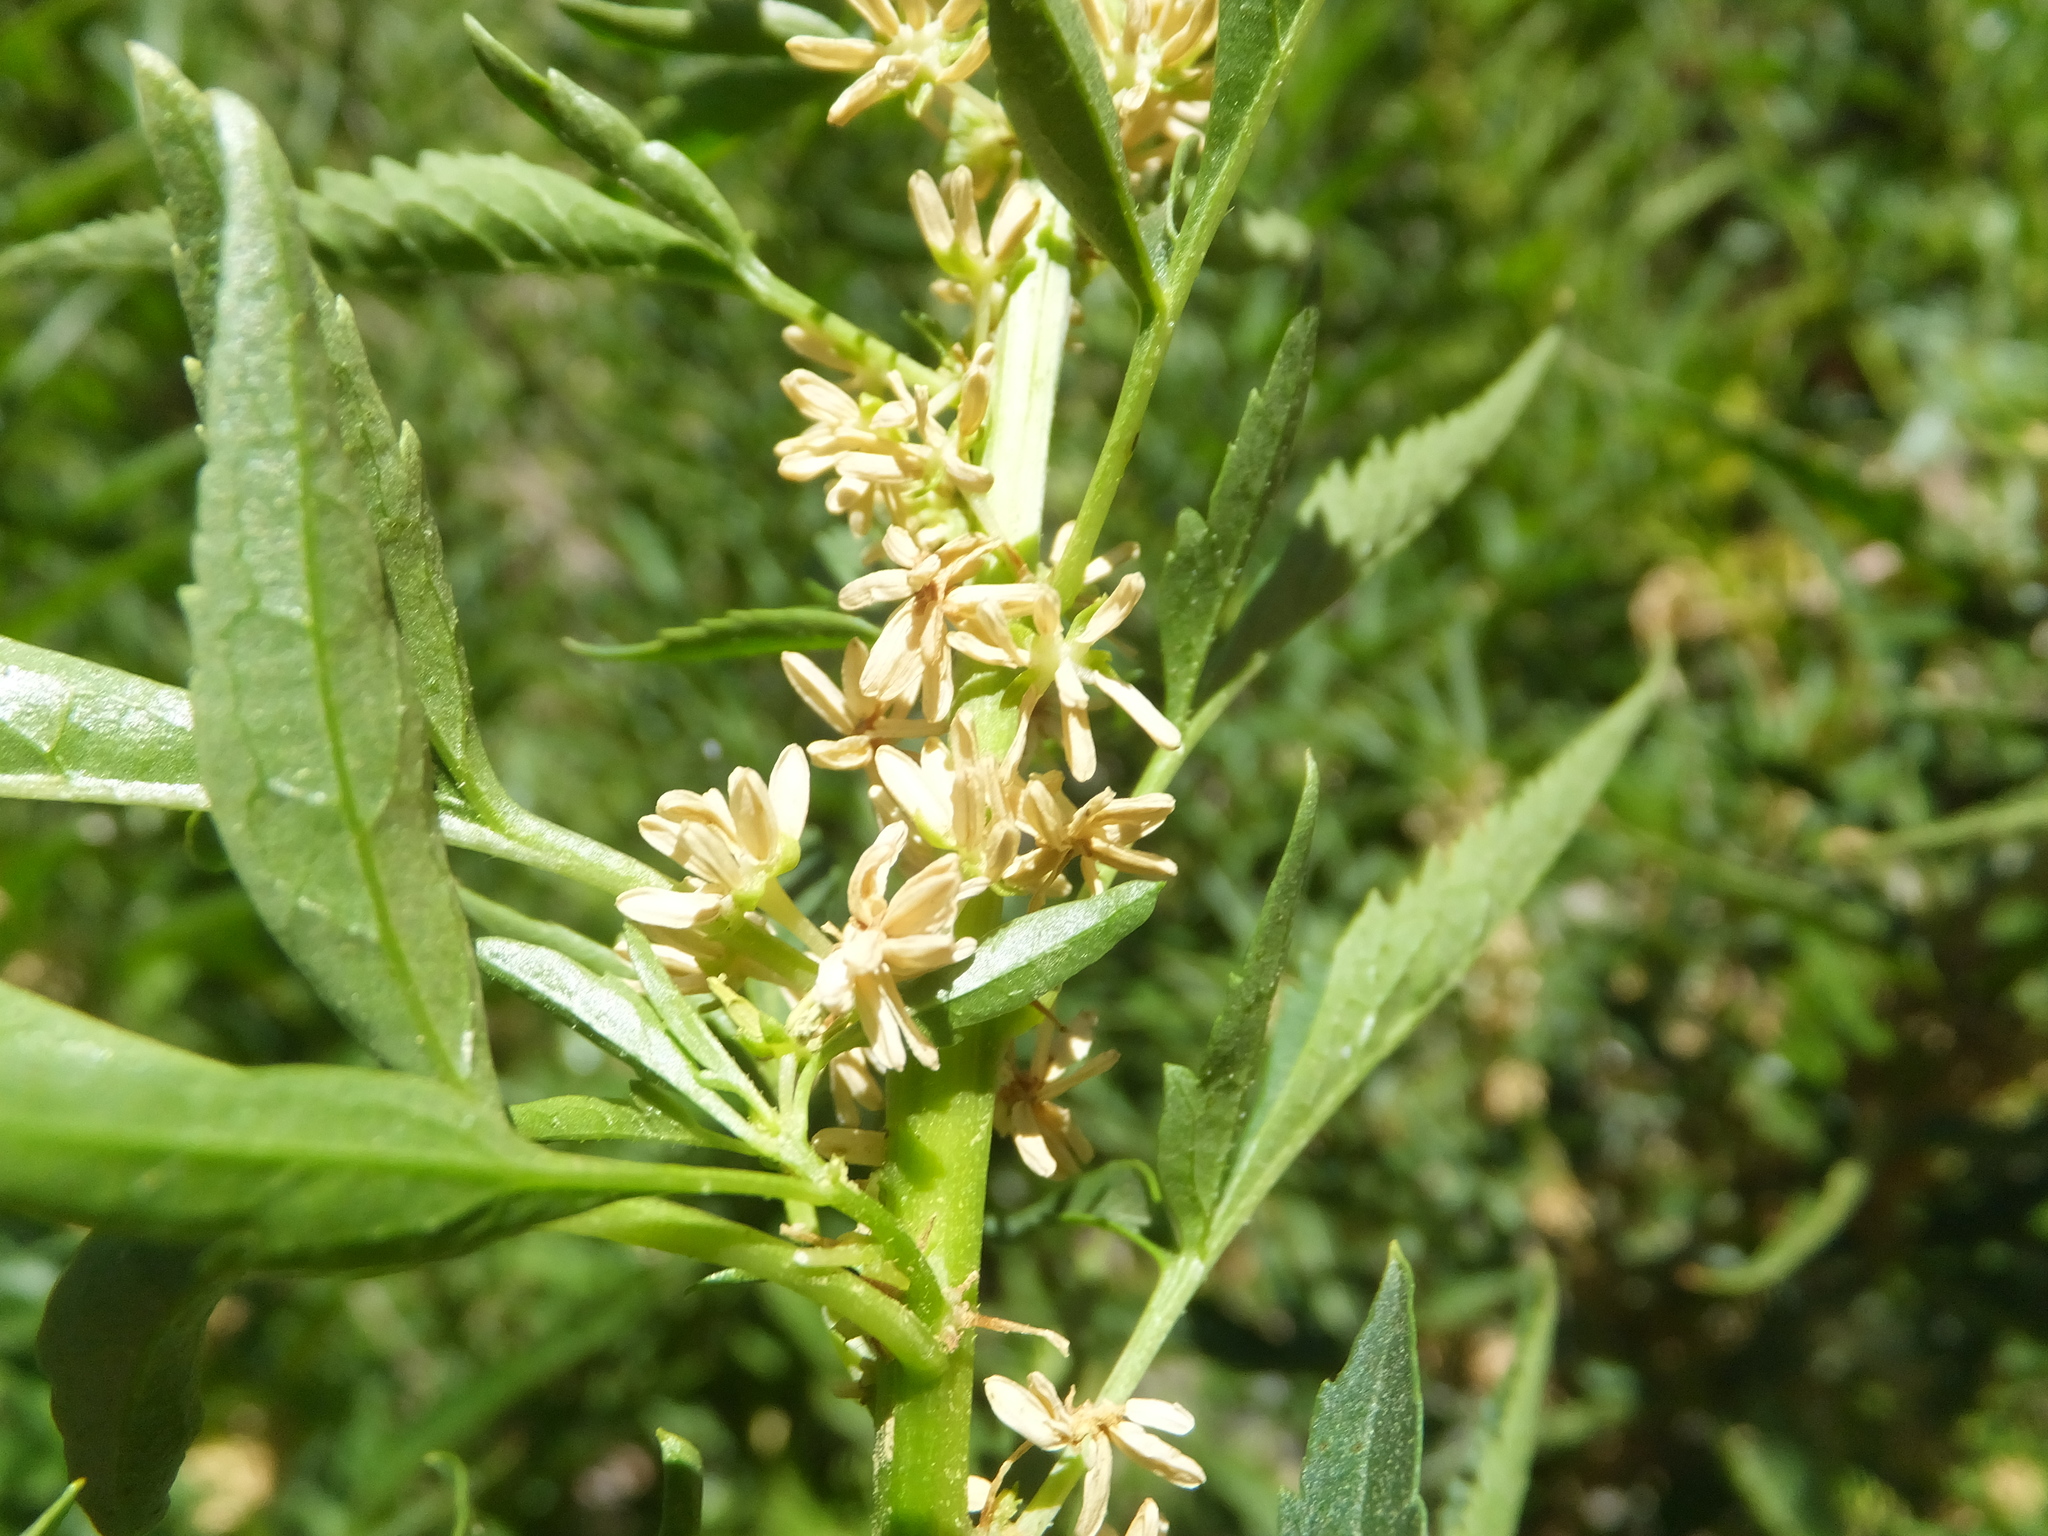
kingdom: Plantae
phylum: Tracheophyta
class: Magnoliopsida
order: Cucurbitales
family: Datiscaceae
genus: Datisca
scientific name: Datisca glomerata
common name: Durango-root
